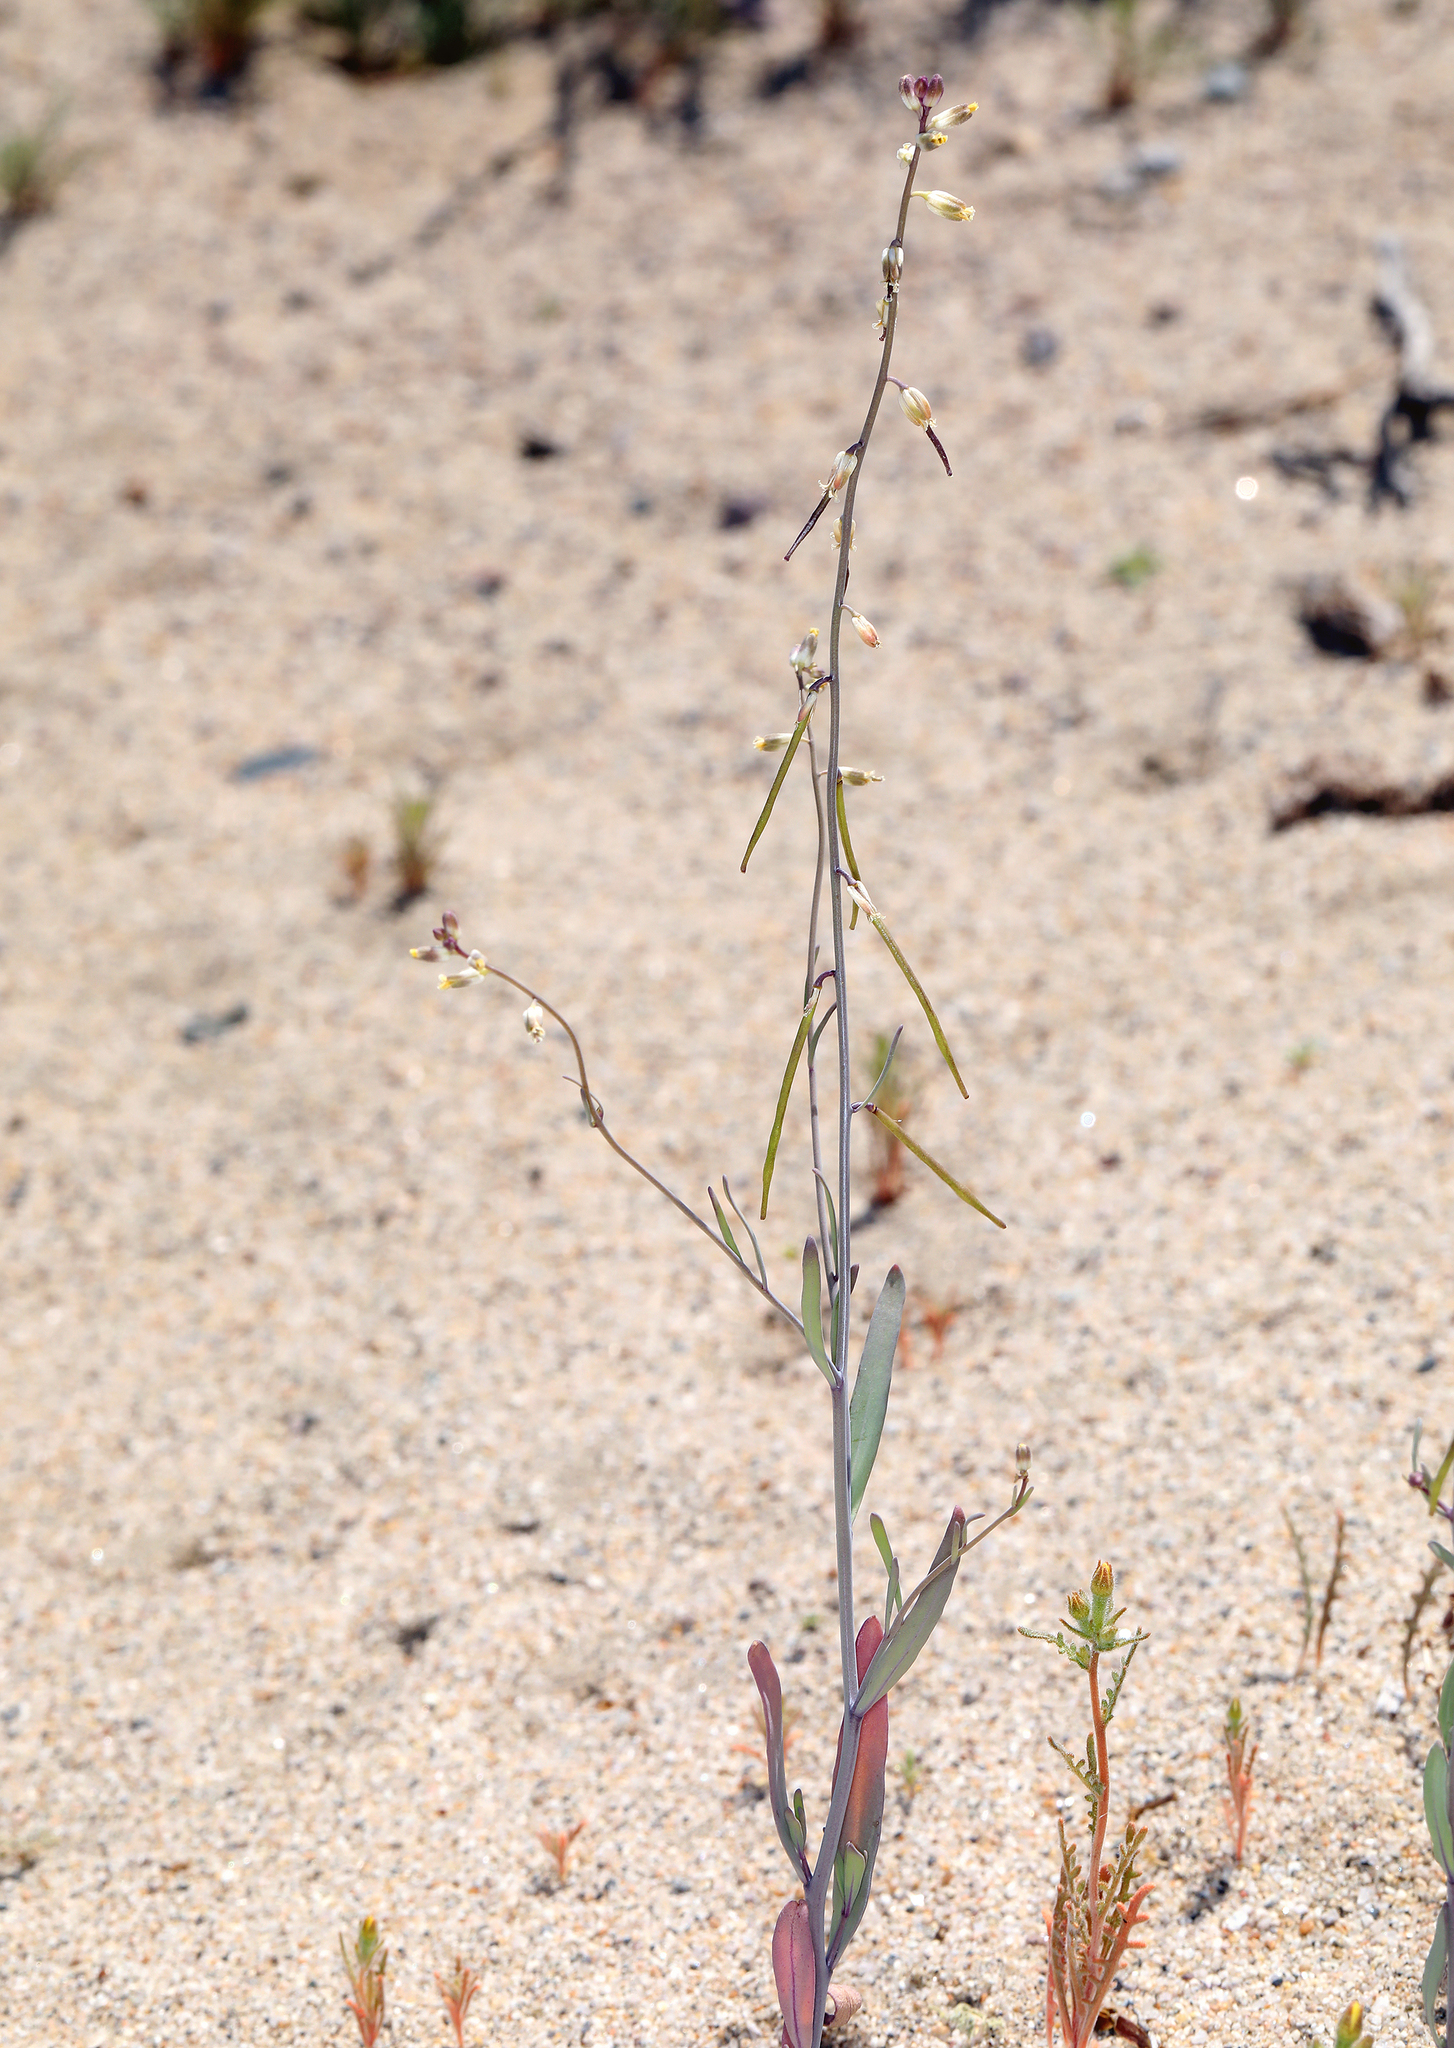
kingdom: Plantae
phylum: Tracheophyta
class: Magnoliopsida
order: Brassicales
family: Brassicaceae
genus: Streptanthus
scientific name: Streptanthus longirostris
